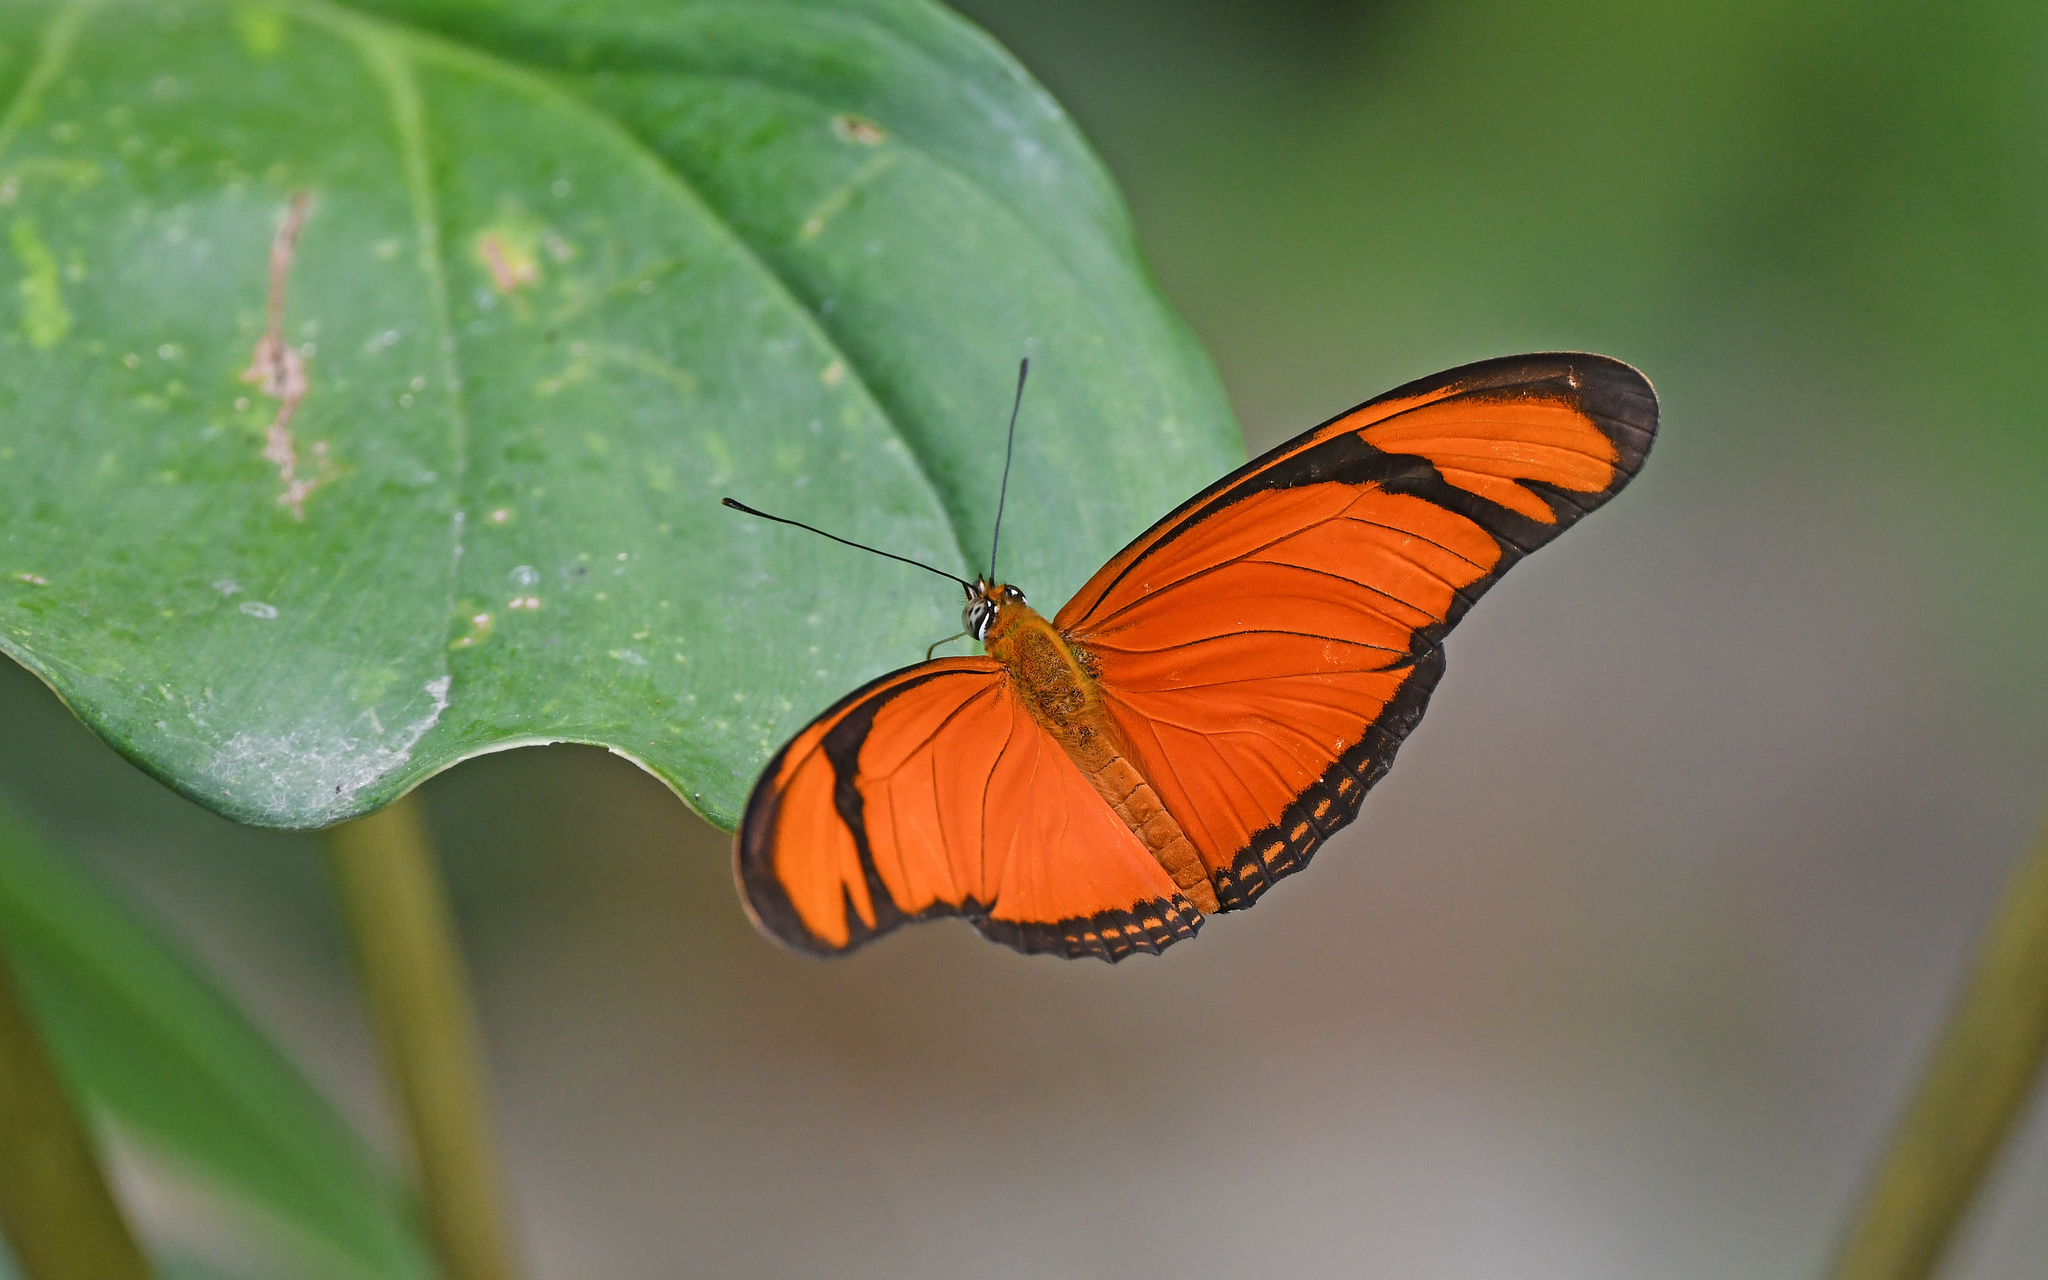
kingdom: Animalia
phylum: Arthropoda
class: Insecta
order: Lepidoptera
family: Nymphalidae
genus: Dryas
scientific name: Dryas iulia
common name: Flambeau
